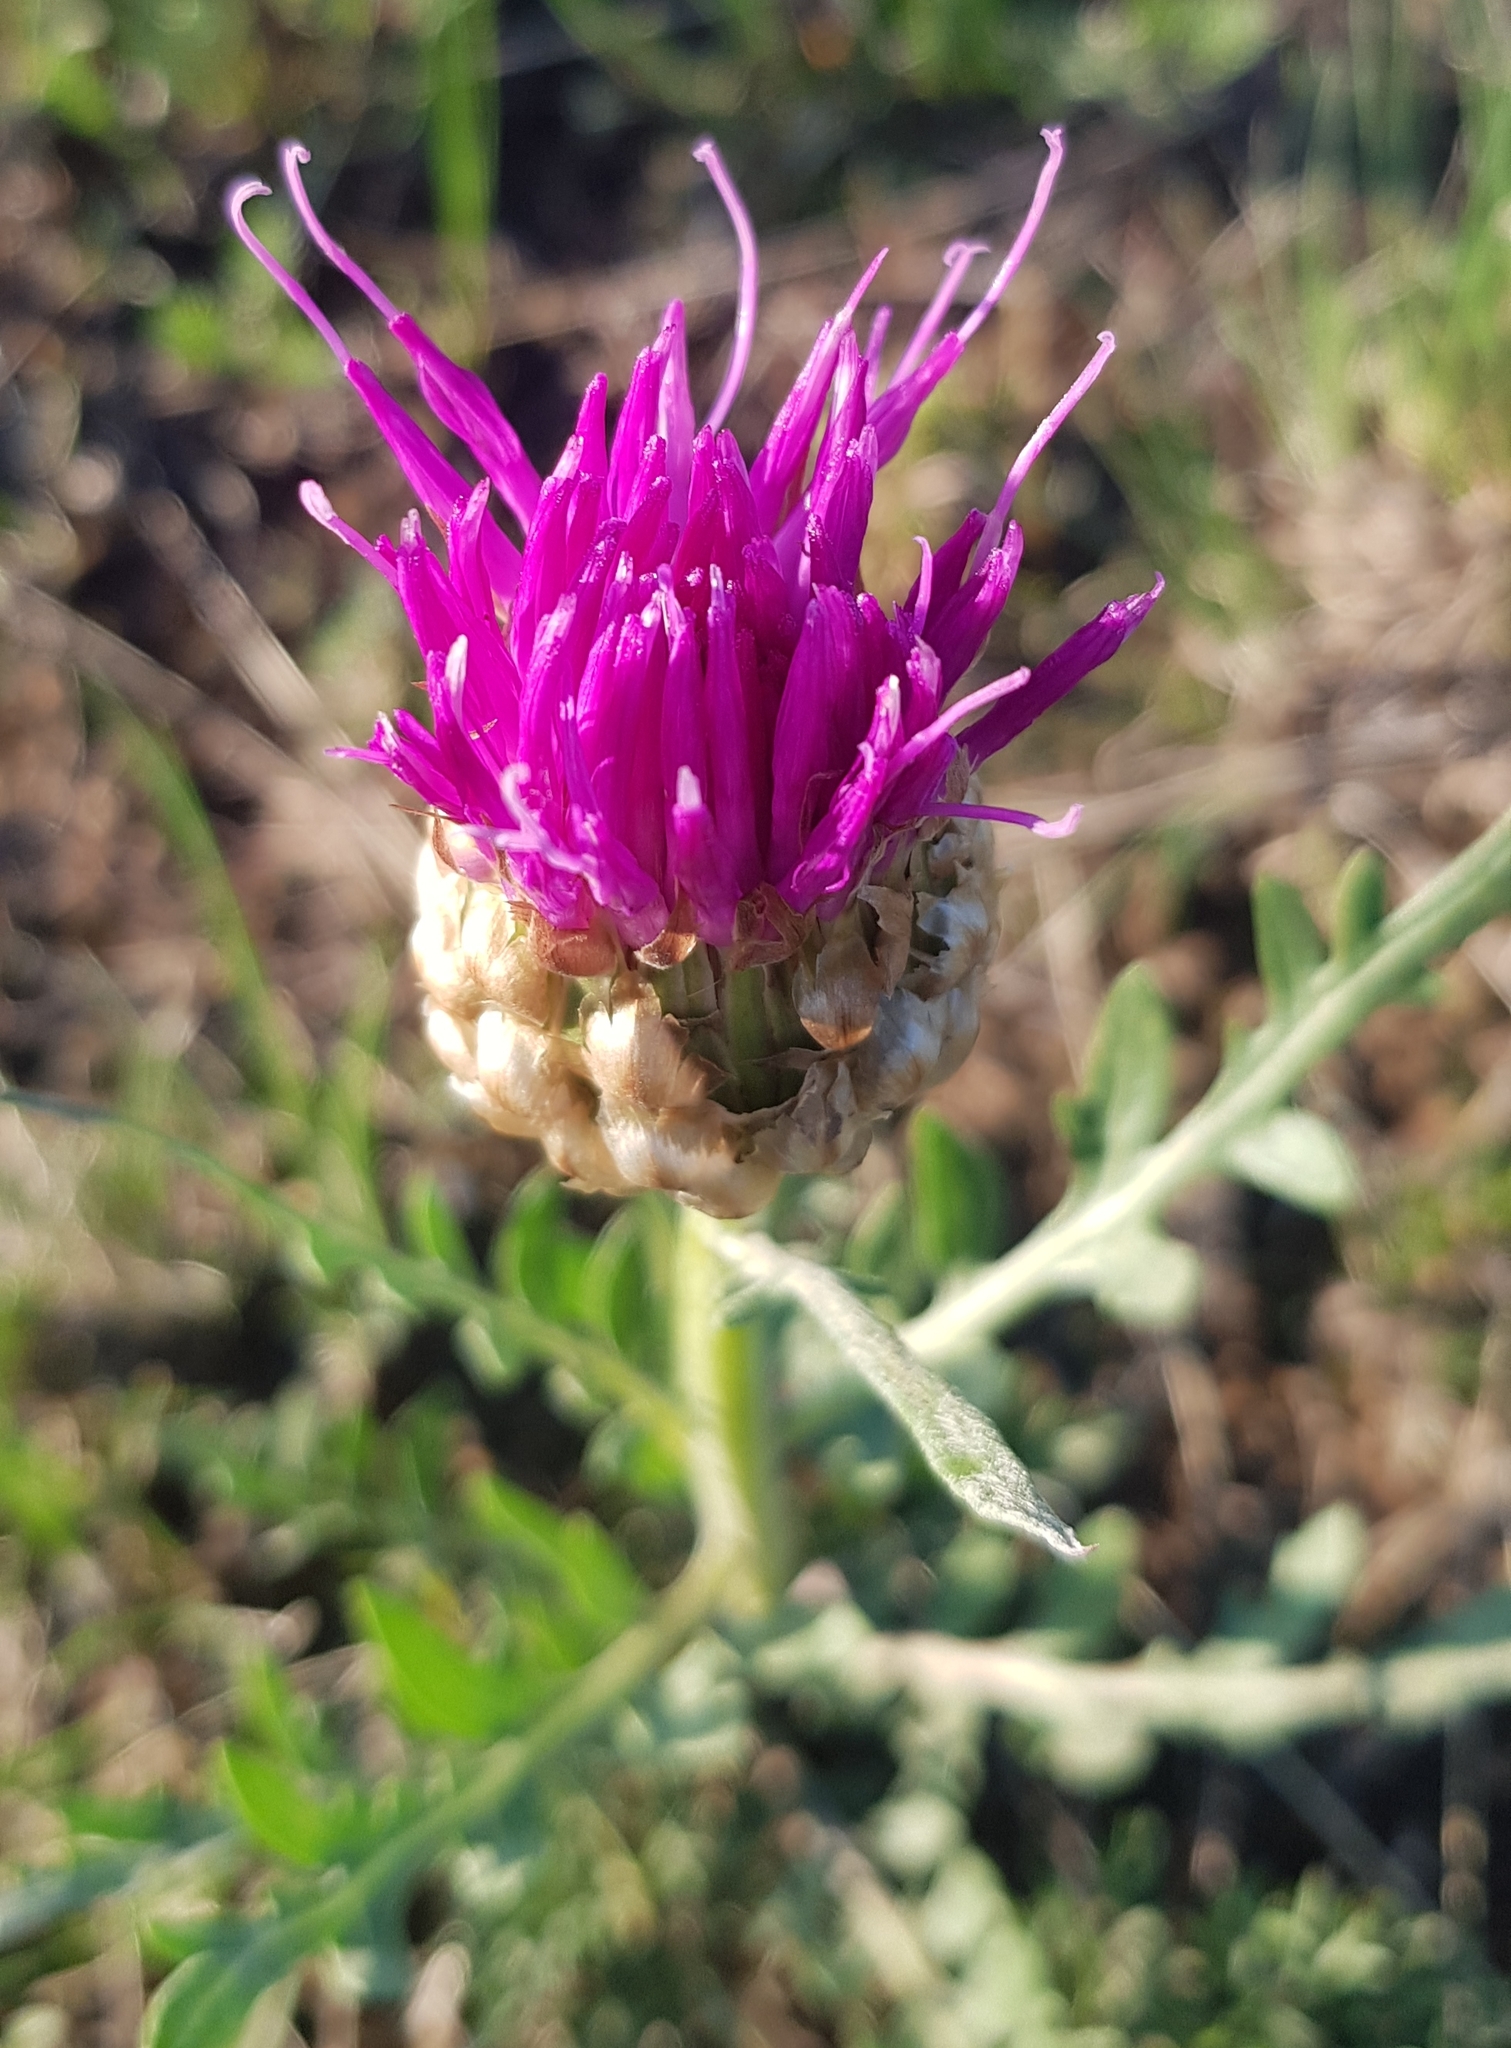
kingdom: Plantae
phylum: Tracheophyta
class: Magnoliopsida
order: Asterales
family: Asteraceae
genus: Leuzea
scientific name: Leuzea uniflora
